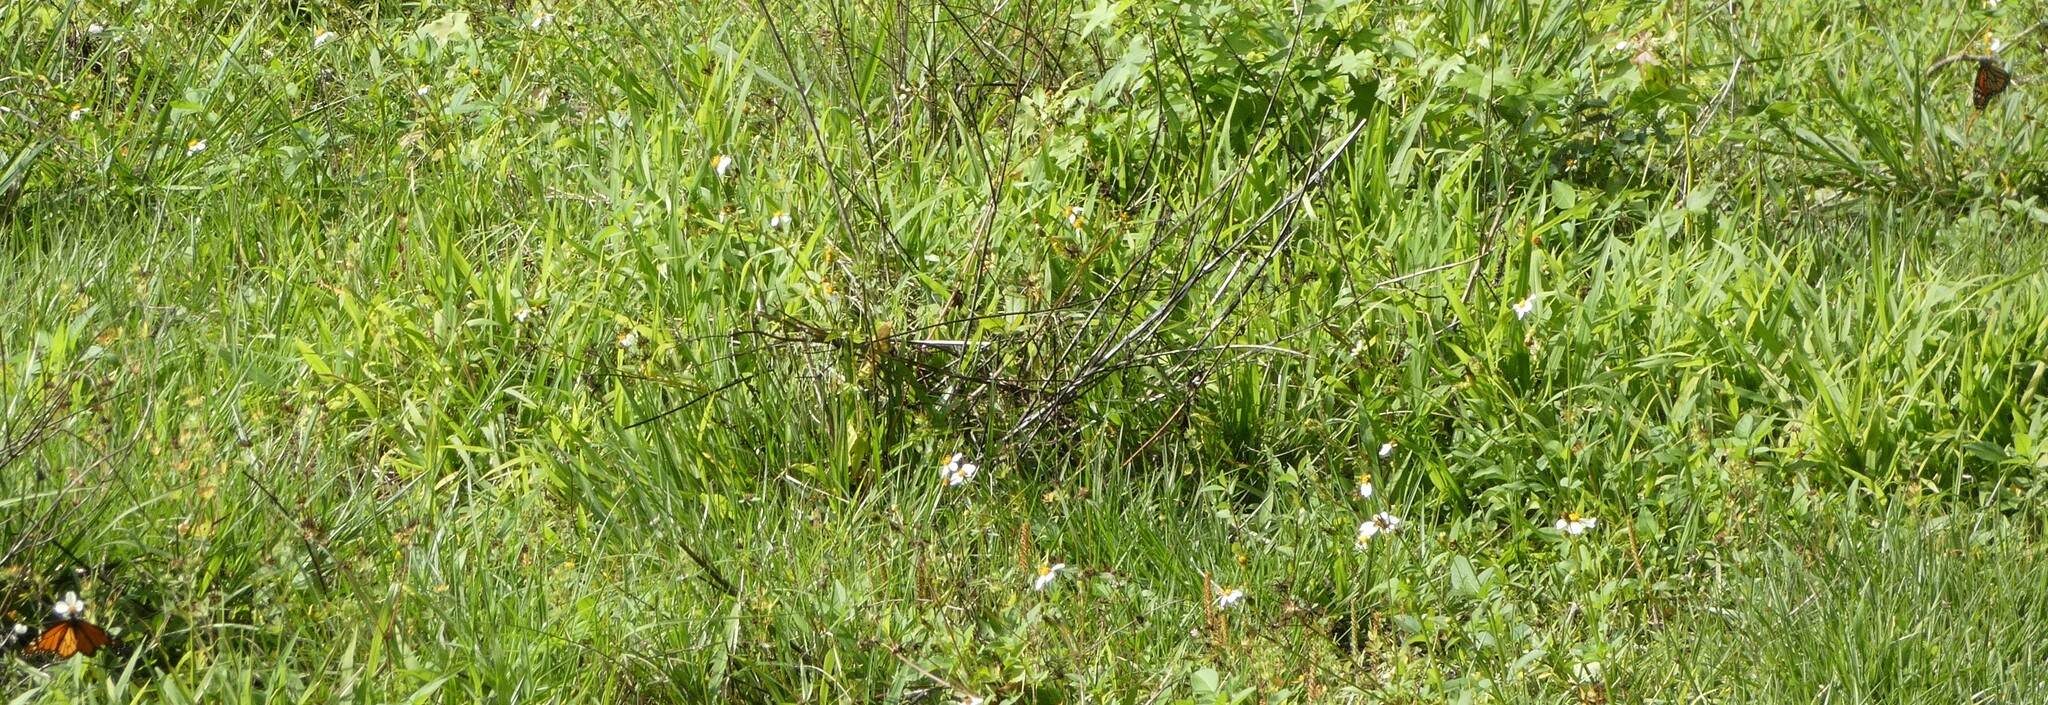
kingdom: Animalia
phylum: Arthropoda
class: Insecta
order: Lepidoptera
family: Nymphalidae
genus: Danaus
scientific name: Danaus plexippus
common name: Monarch
